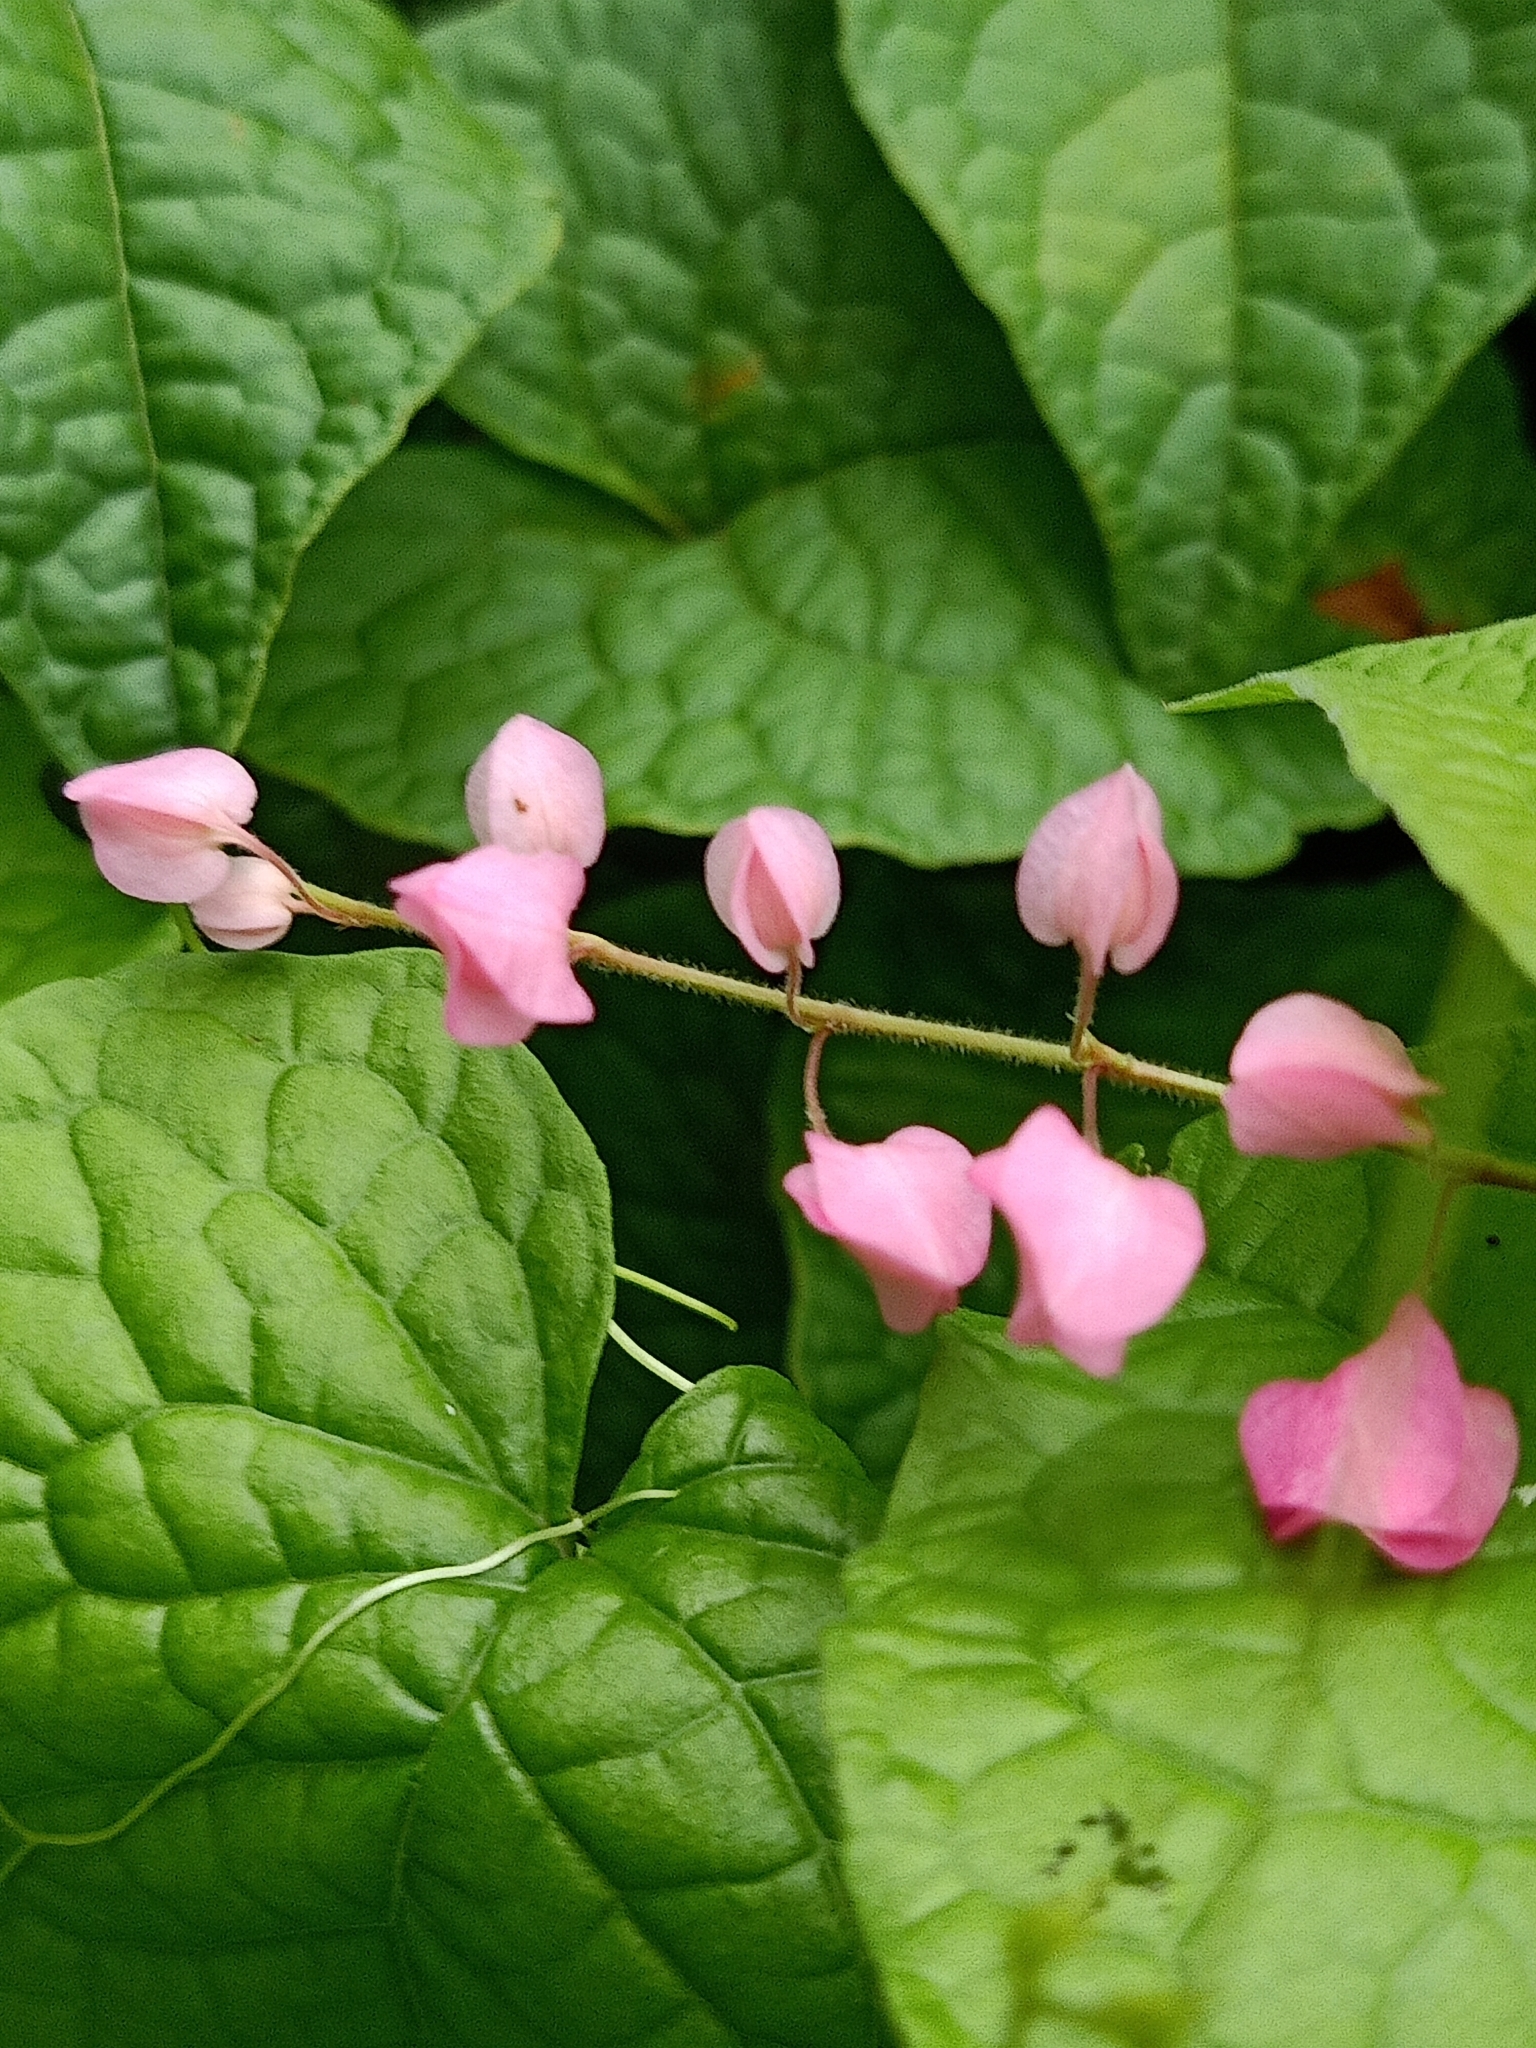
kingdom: Plantae
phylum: Tracheophyta
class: Magnoliopsida
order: Caryophyllales
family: Polygonaceae
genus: Antigonon
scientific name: Antigonon leptopus
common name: Coral vine
